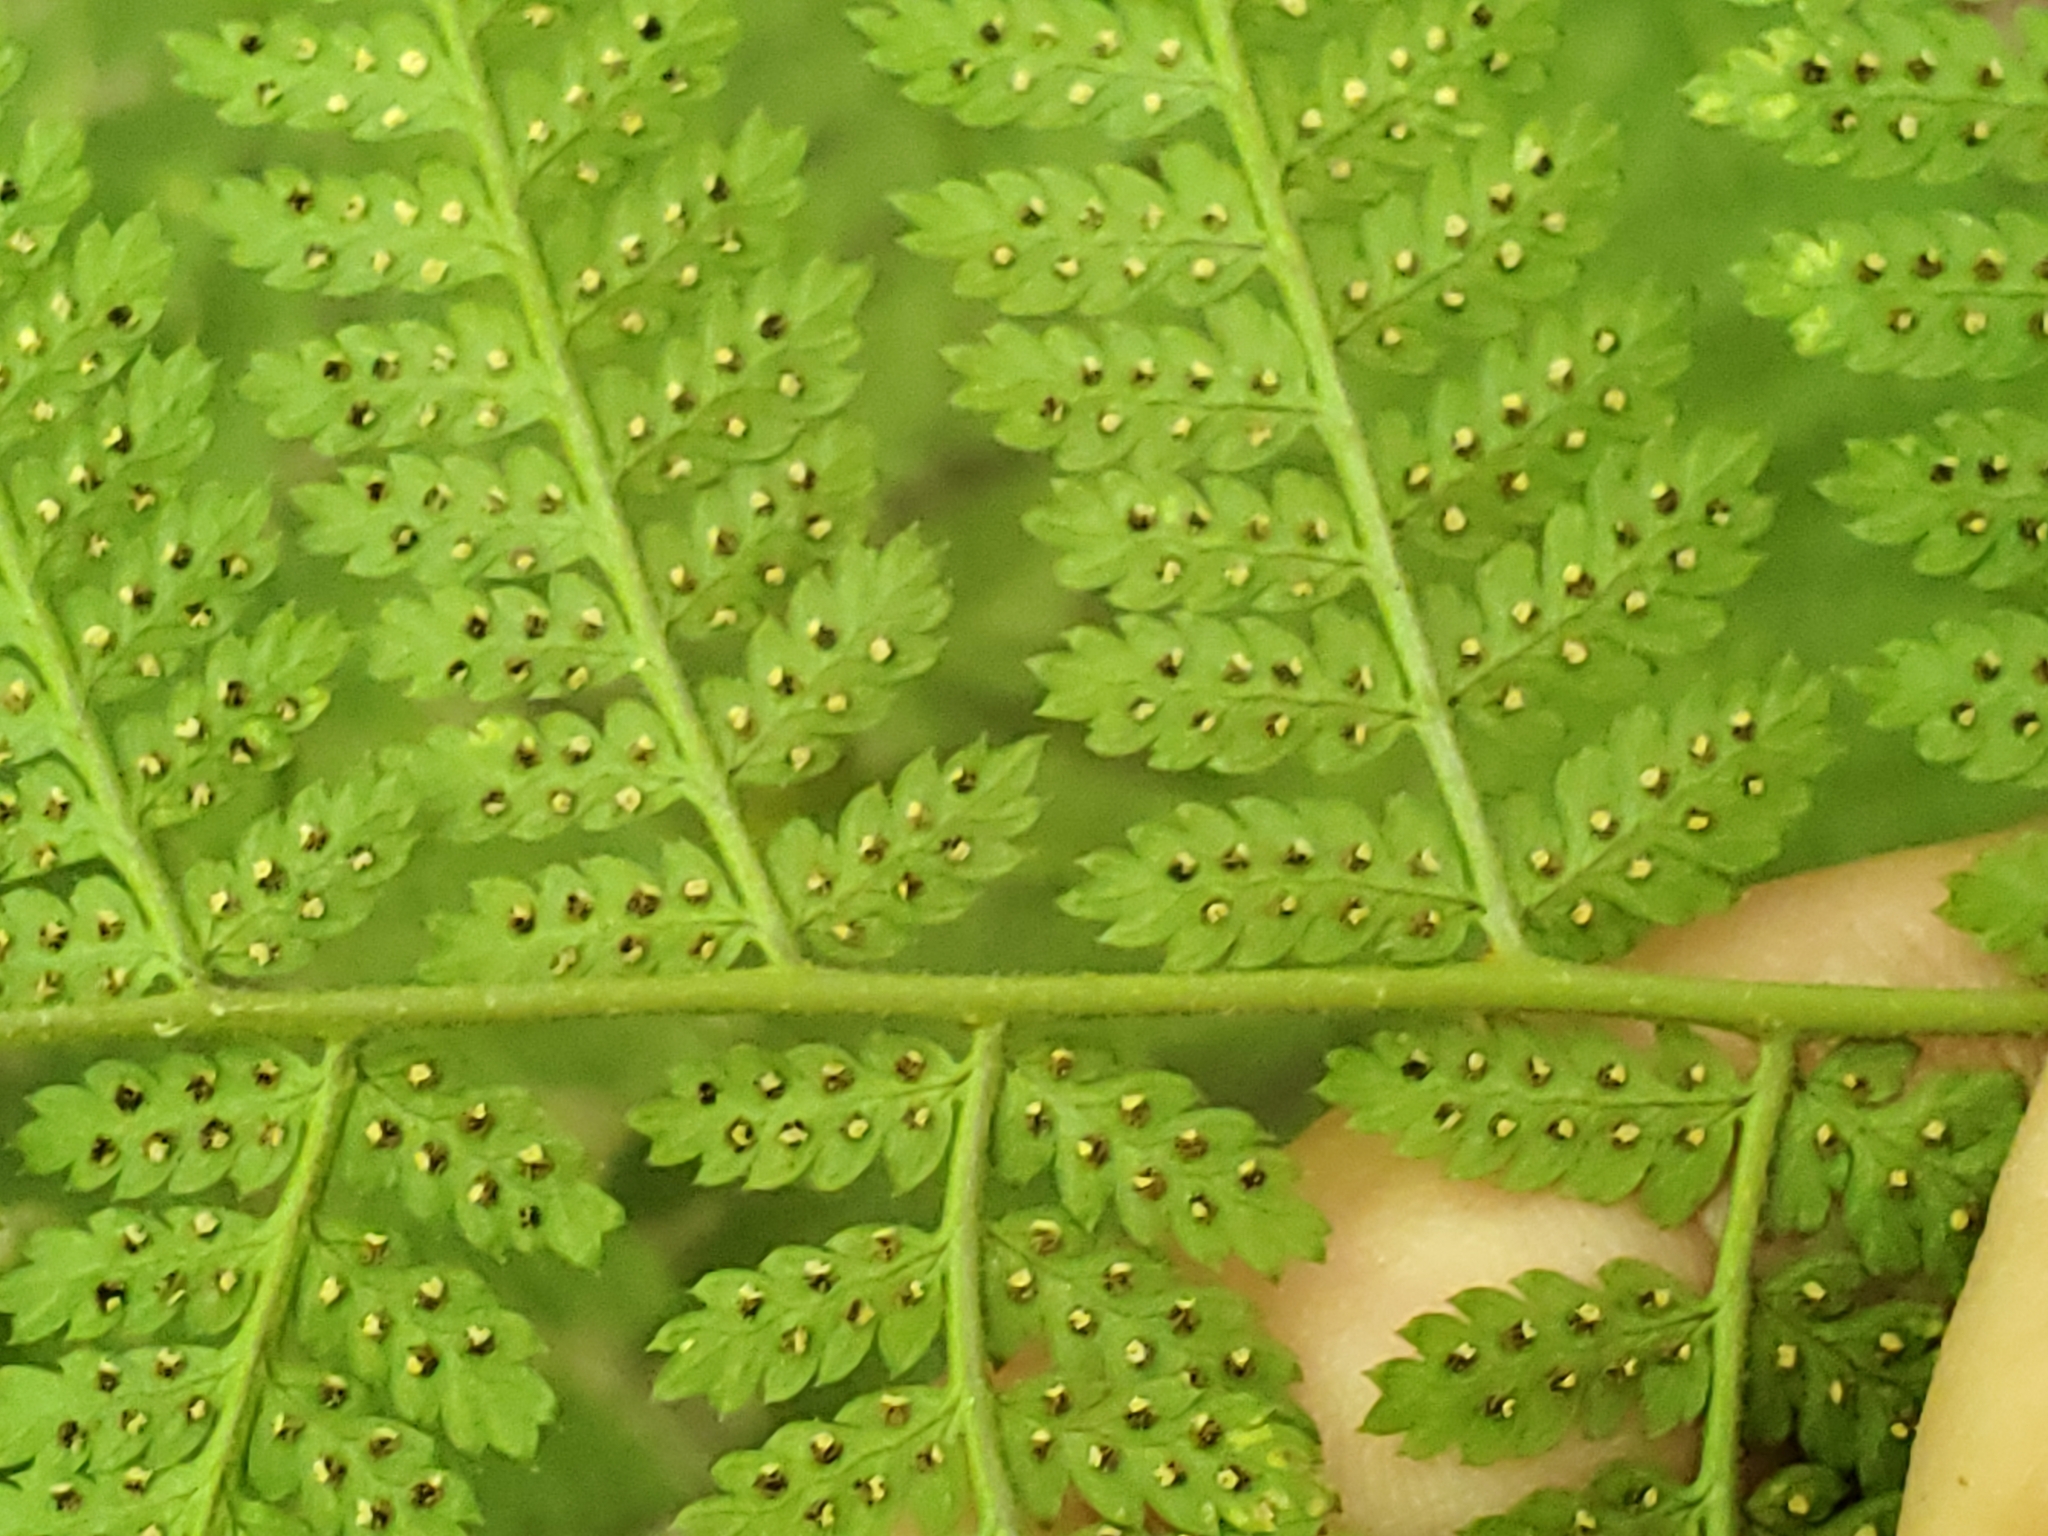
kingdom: Plantae
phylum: Tracheophyta
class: Polypodiopsida
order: Polypodiales
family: Dryopteridaceae
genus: Dryopteris
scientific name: Dryopteris intermedia
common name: Evergreen wood fern
